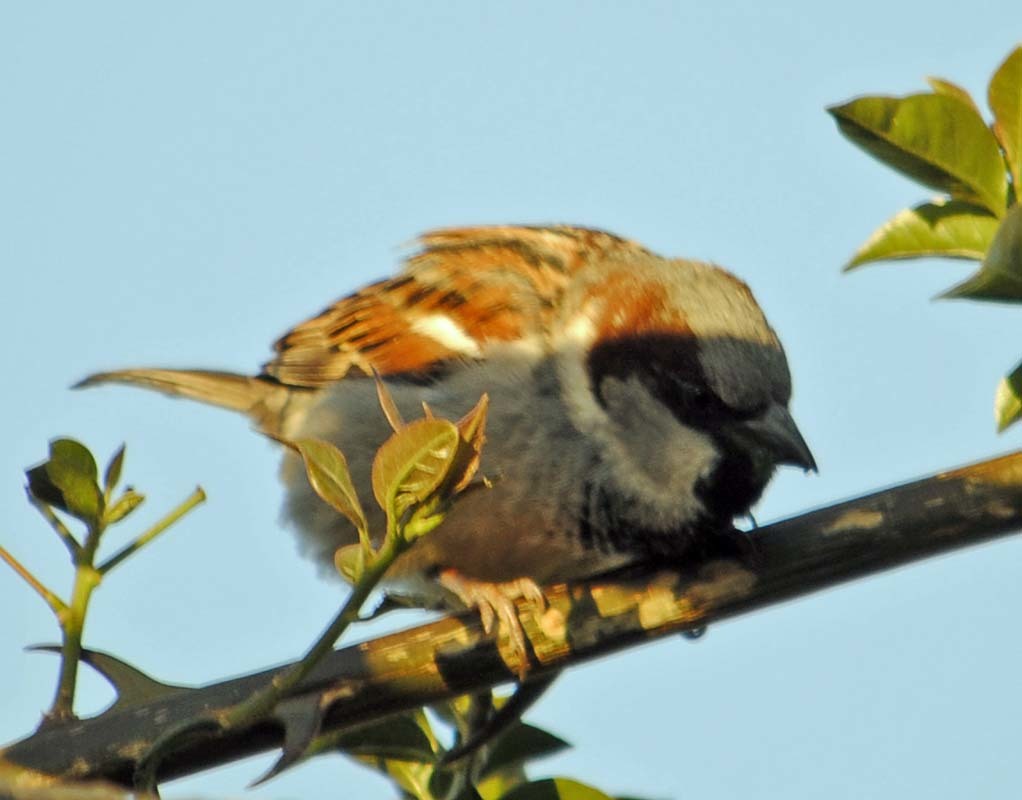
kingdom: Animalia
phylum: Chordata
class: Aves
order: Passeriformes
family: Passeridae
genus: Passer
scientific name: Passer domesticus
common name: House sparrow
